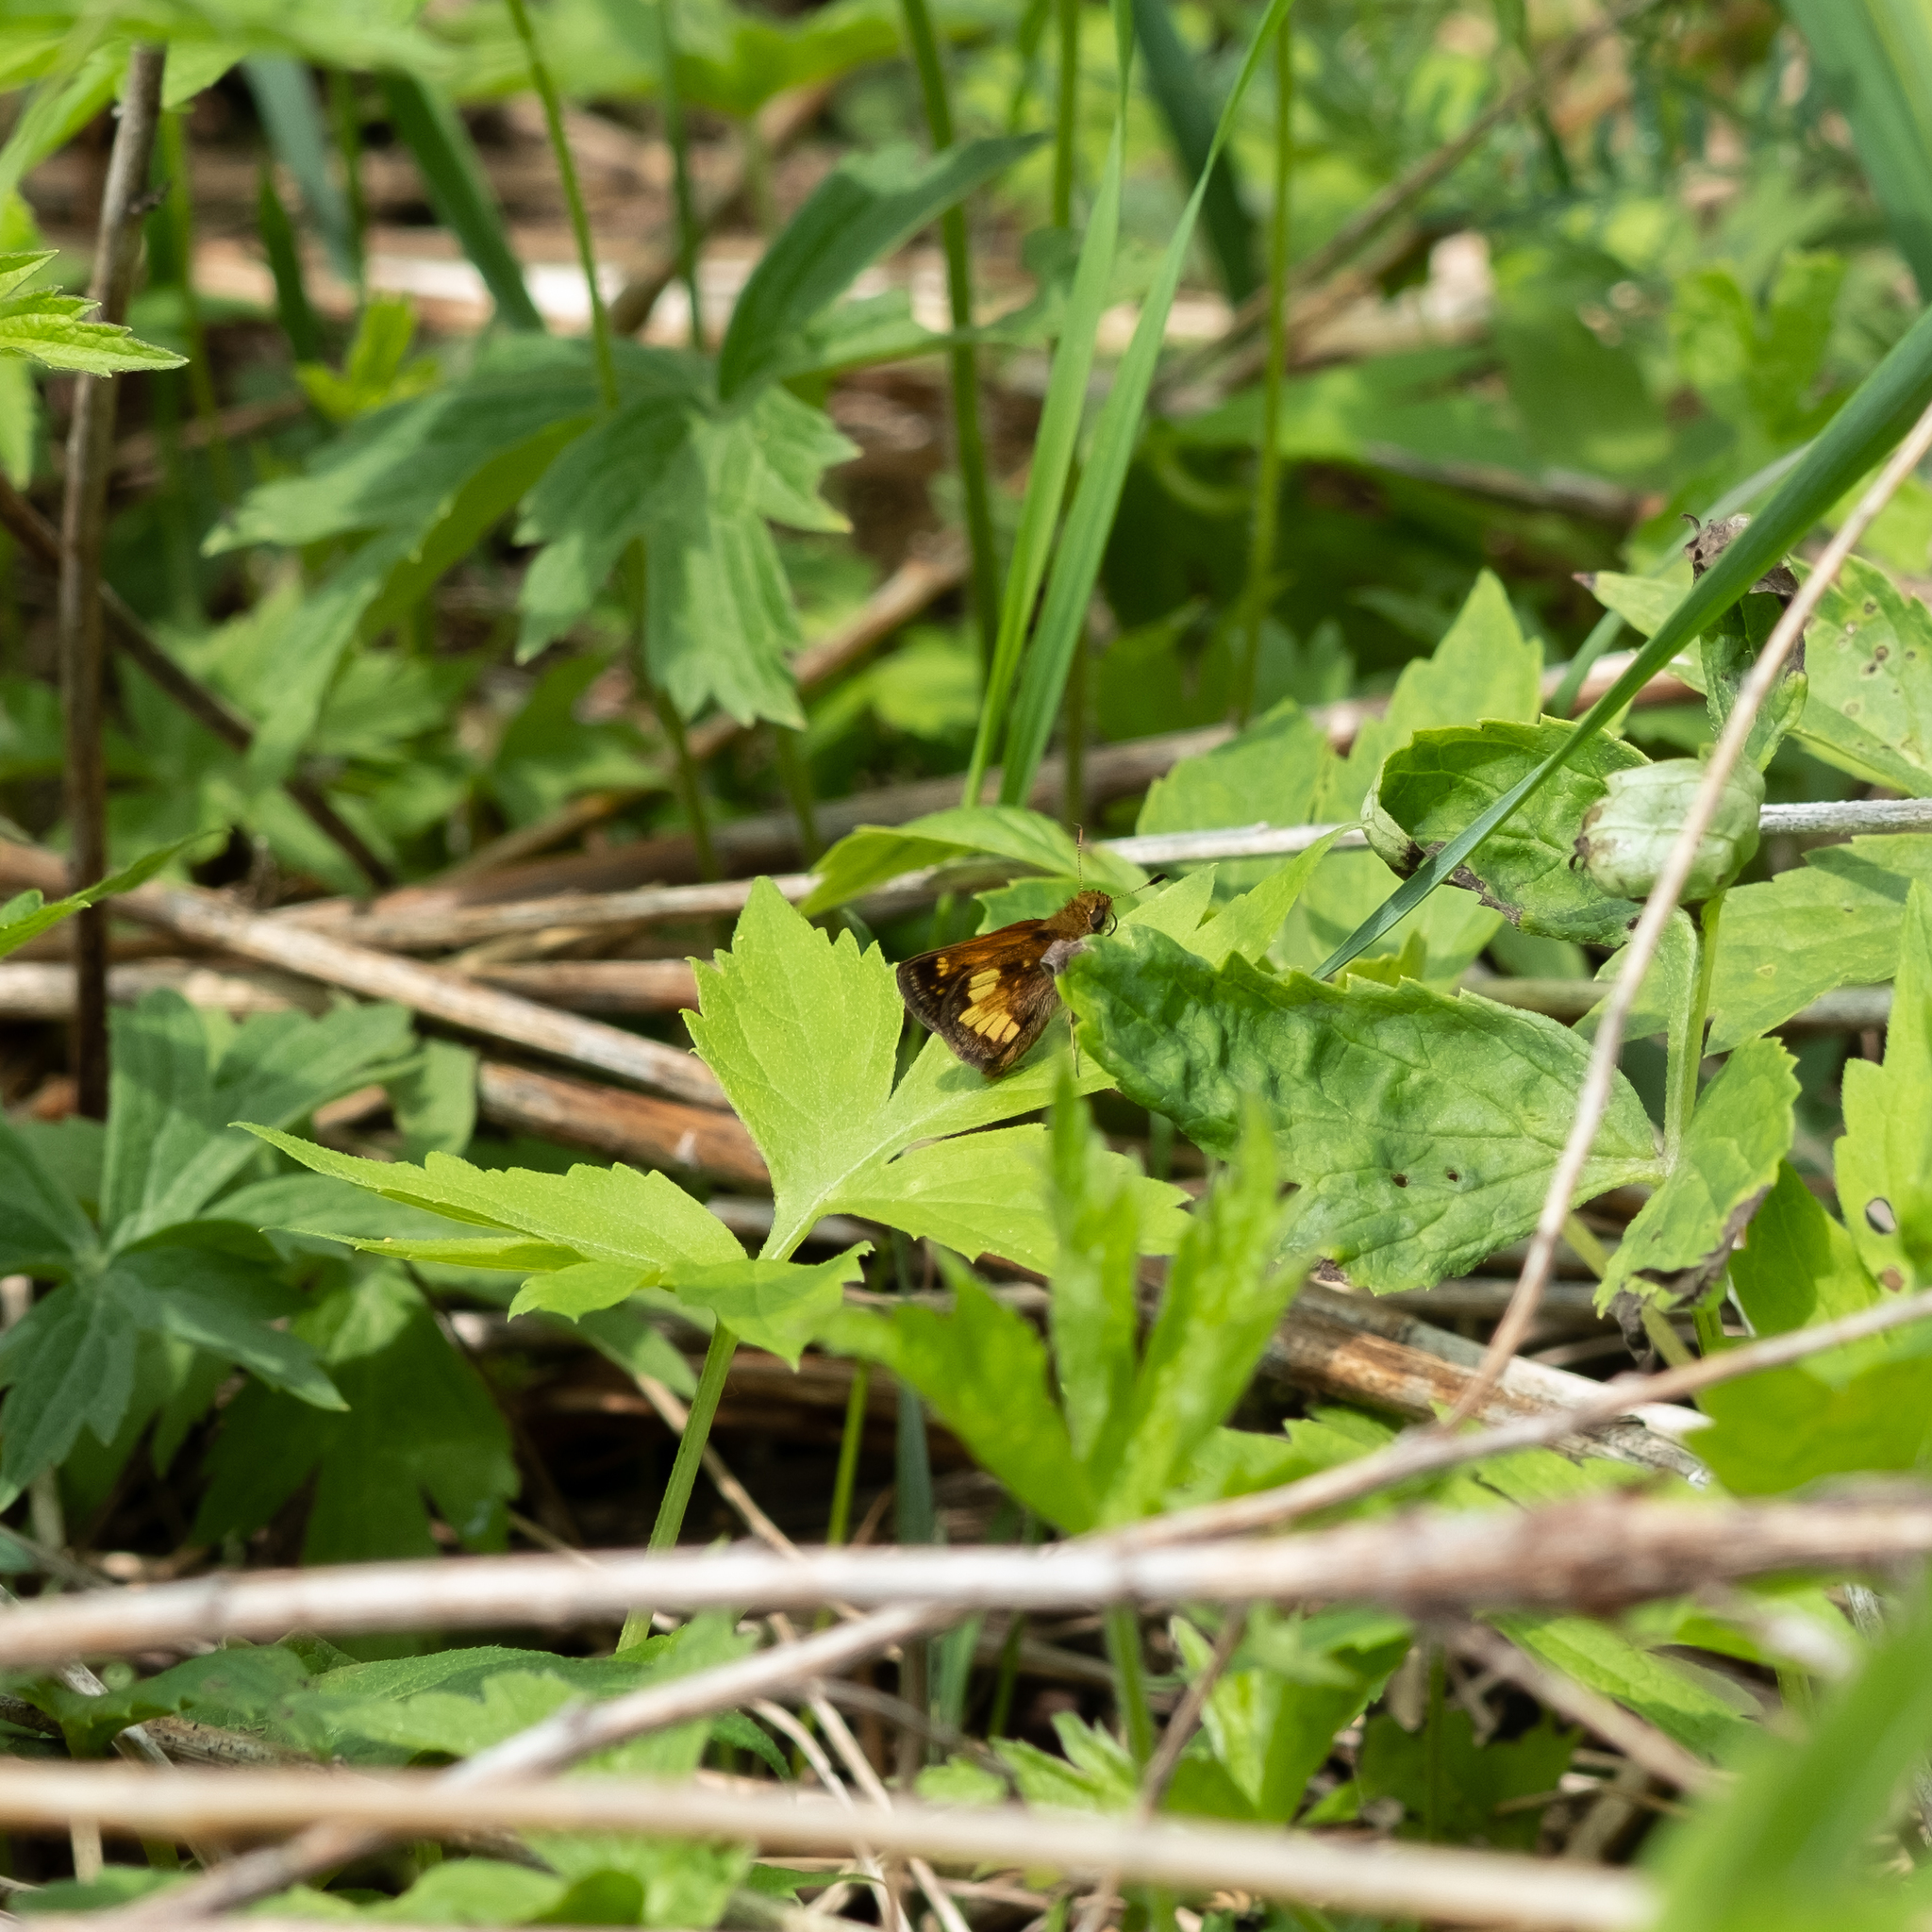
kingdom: Animalia
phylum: Arthropoda
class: Insecta
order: Lepidoptera
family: Hesperiidae
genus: Lon
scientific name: Lon hobomok
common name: Hobomok skipper
